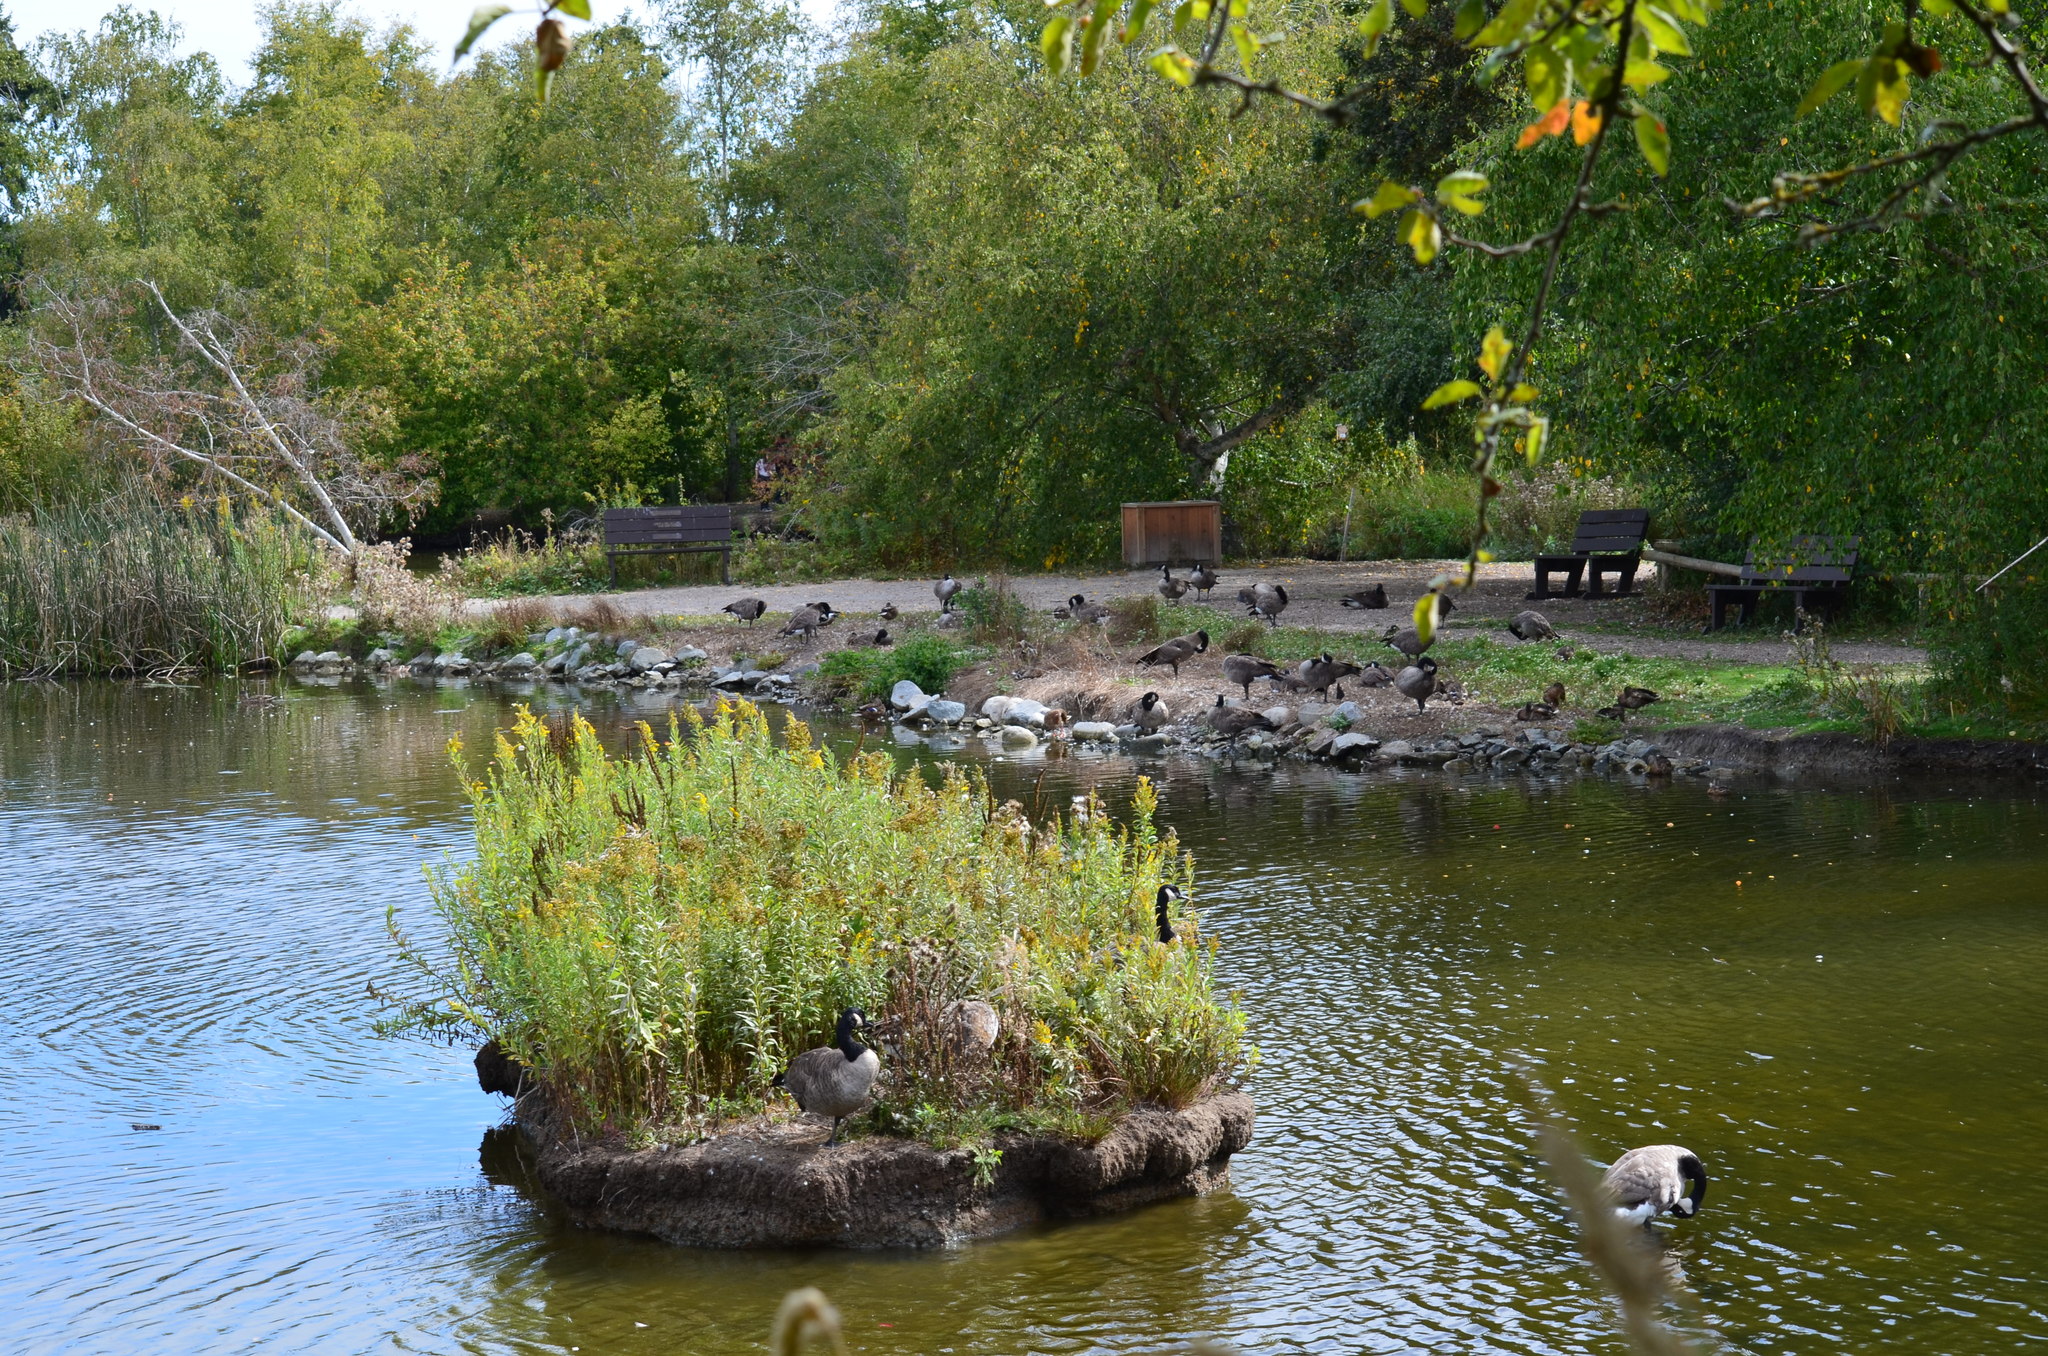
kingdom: Animalia
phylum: Chordata
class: Aves
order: Anseriformes
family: Anatidae
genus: Branta
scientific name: Branta canadensis
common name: Canada goose
